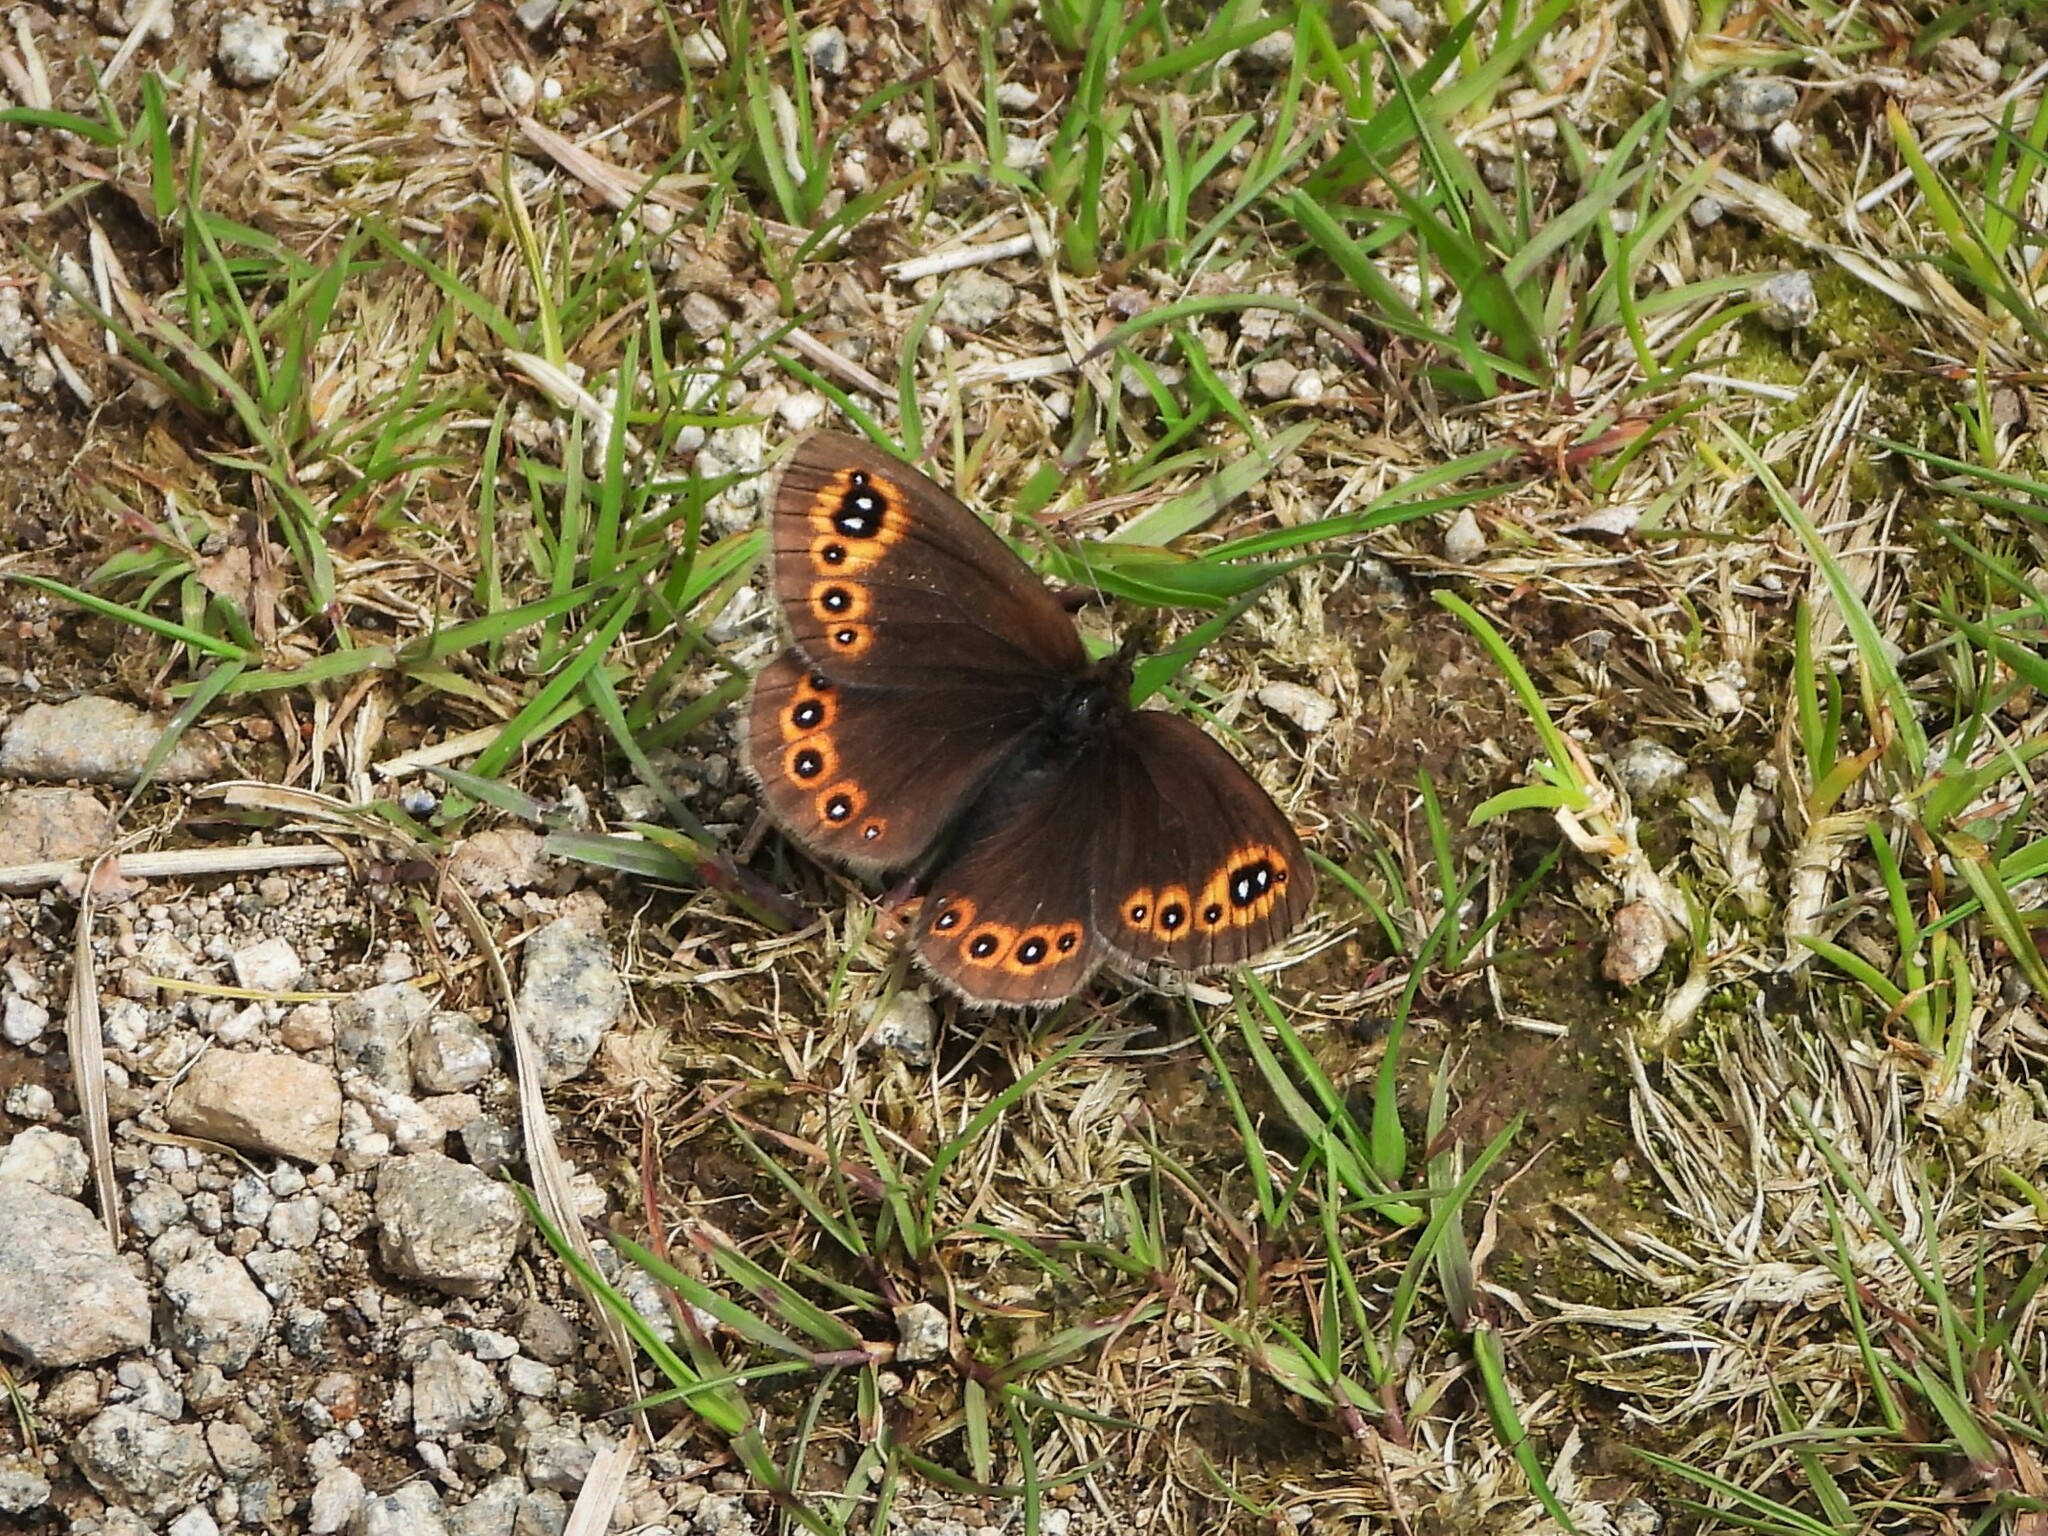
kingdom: Animalia
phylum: Arthropoda
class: Insecta
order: Lepidoptera
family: Nymphalidae
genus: Erebia
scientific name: Erebia medusa
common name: Woodland ringlet
